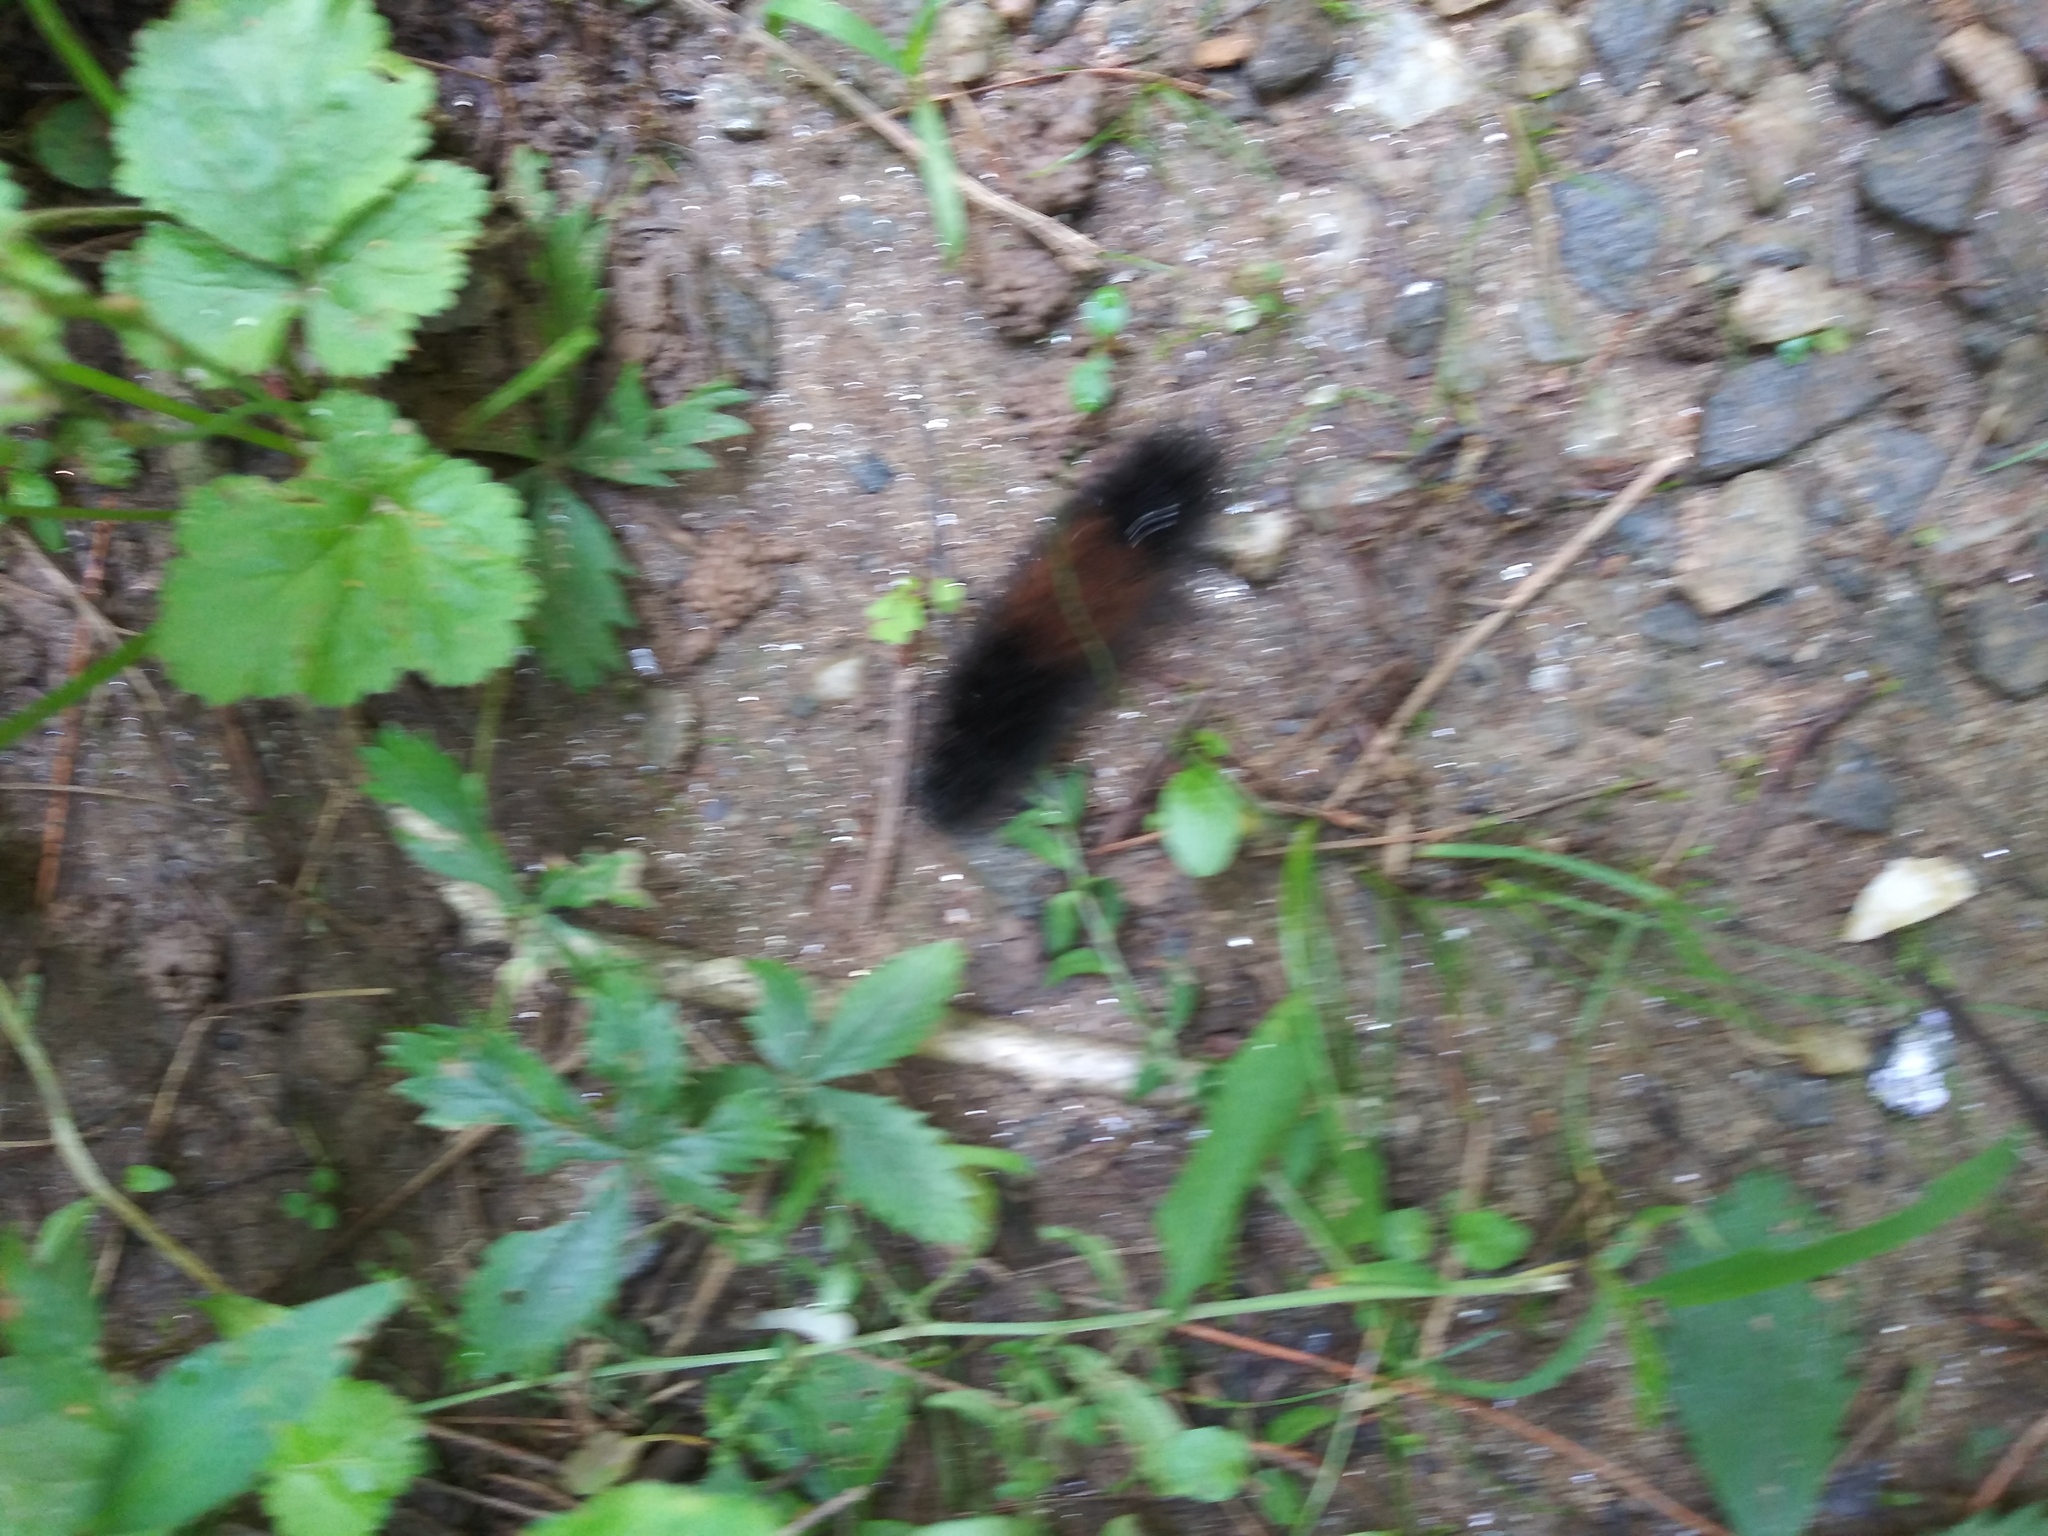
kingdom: Animalia
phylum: Arthropoda
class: Insecta
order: Lepidoptera
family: Erebidae
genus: Pyrrharctia
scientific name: Pyrrharctia isabella
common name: Isabella tiger moth
